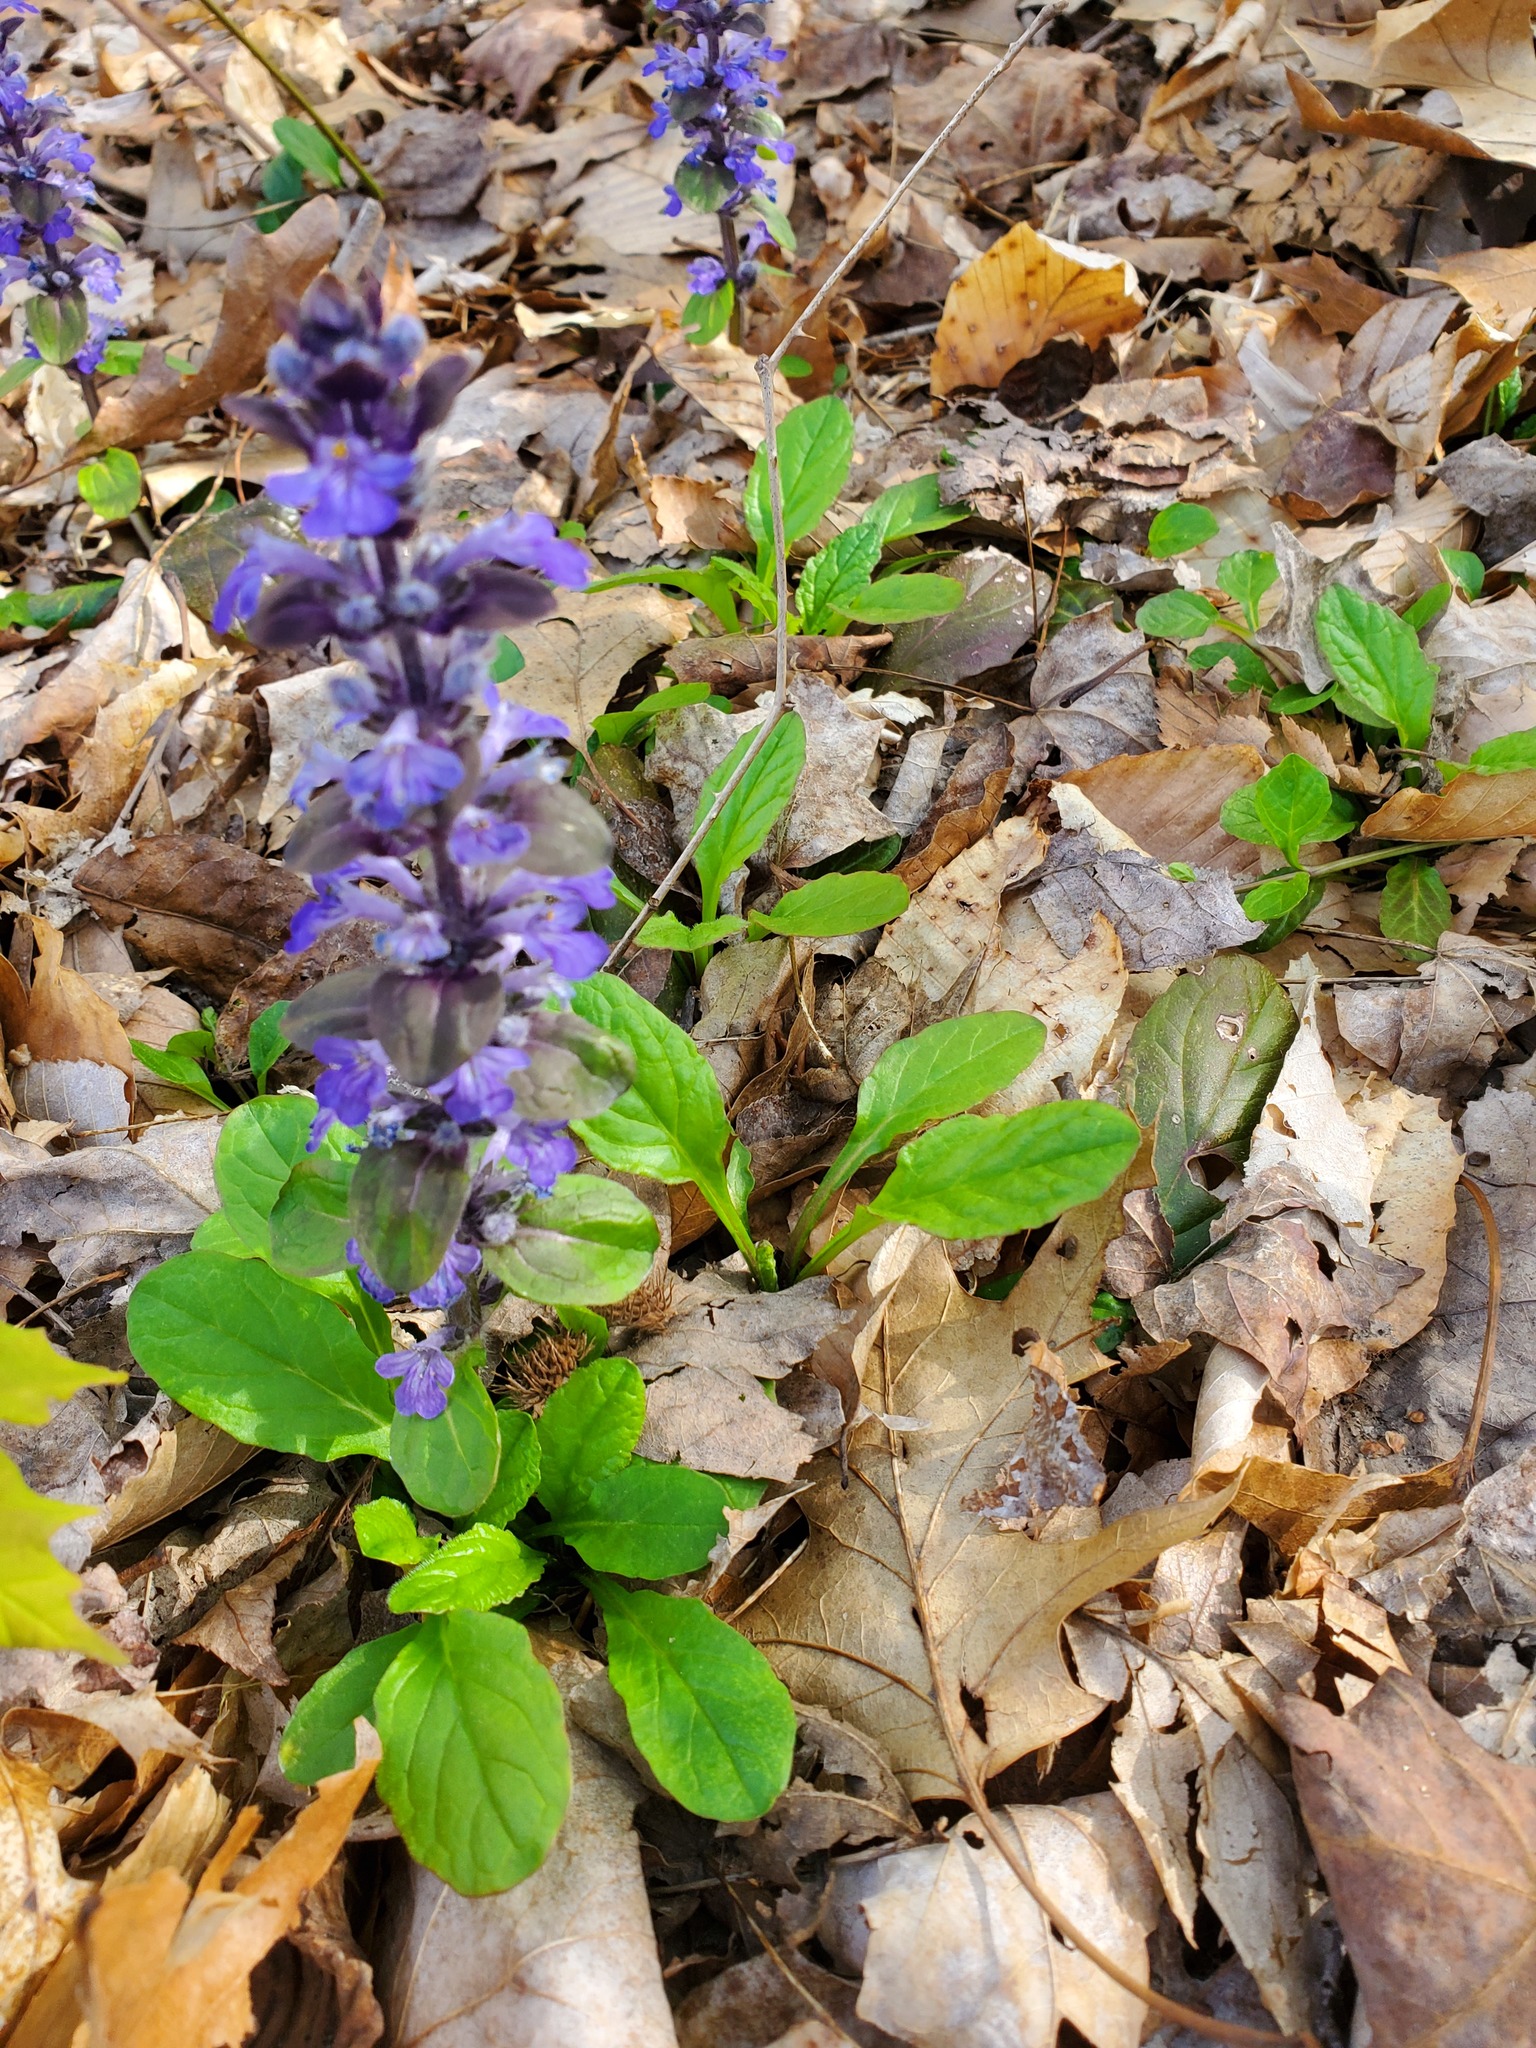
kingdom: Plantae
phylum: Tracheophyta
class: Magnoliopsida
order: Lamiales
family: Lamiaceae
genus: Ajuga
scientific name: Ajuga reptans
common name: Bugle
